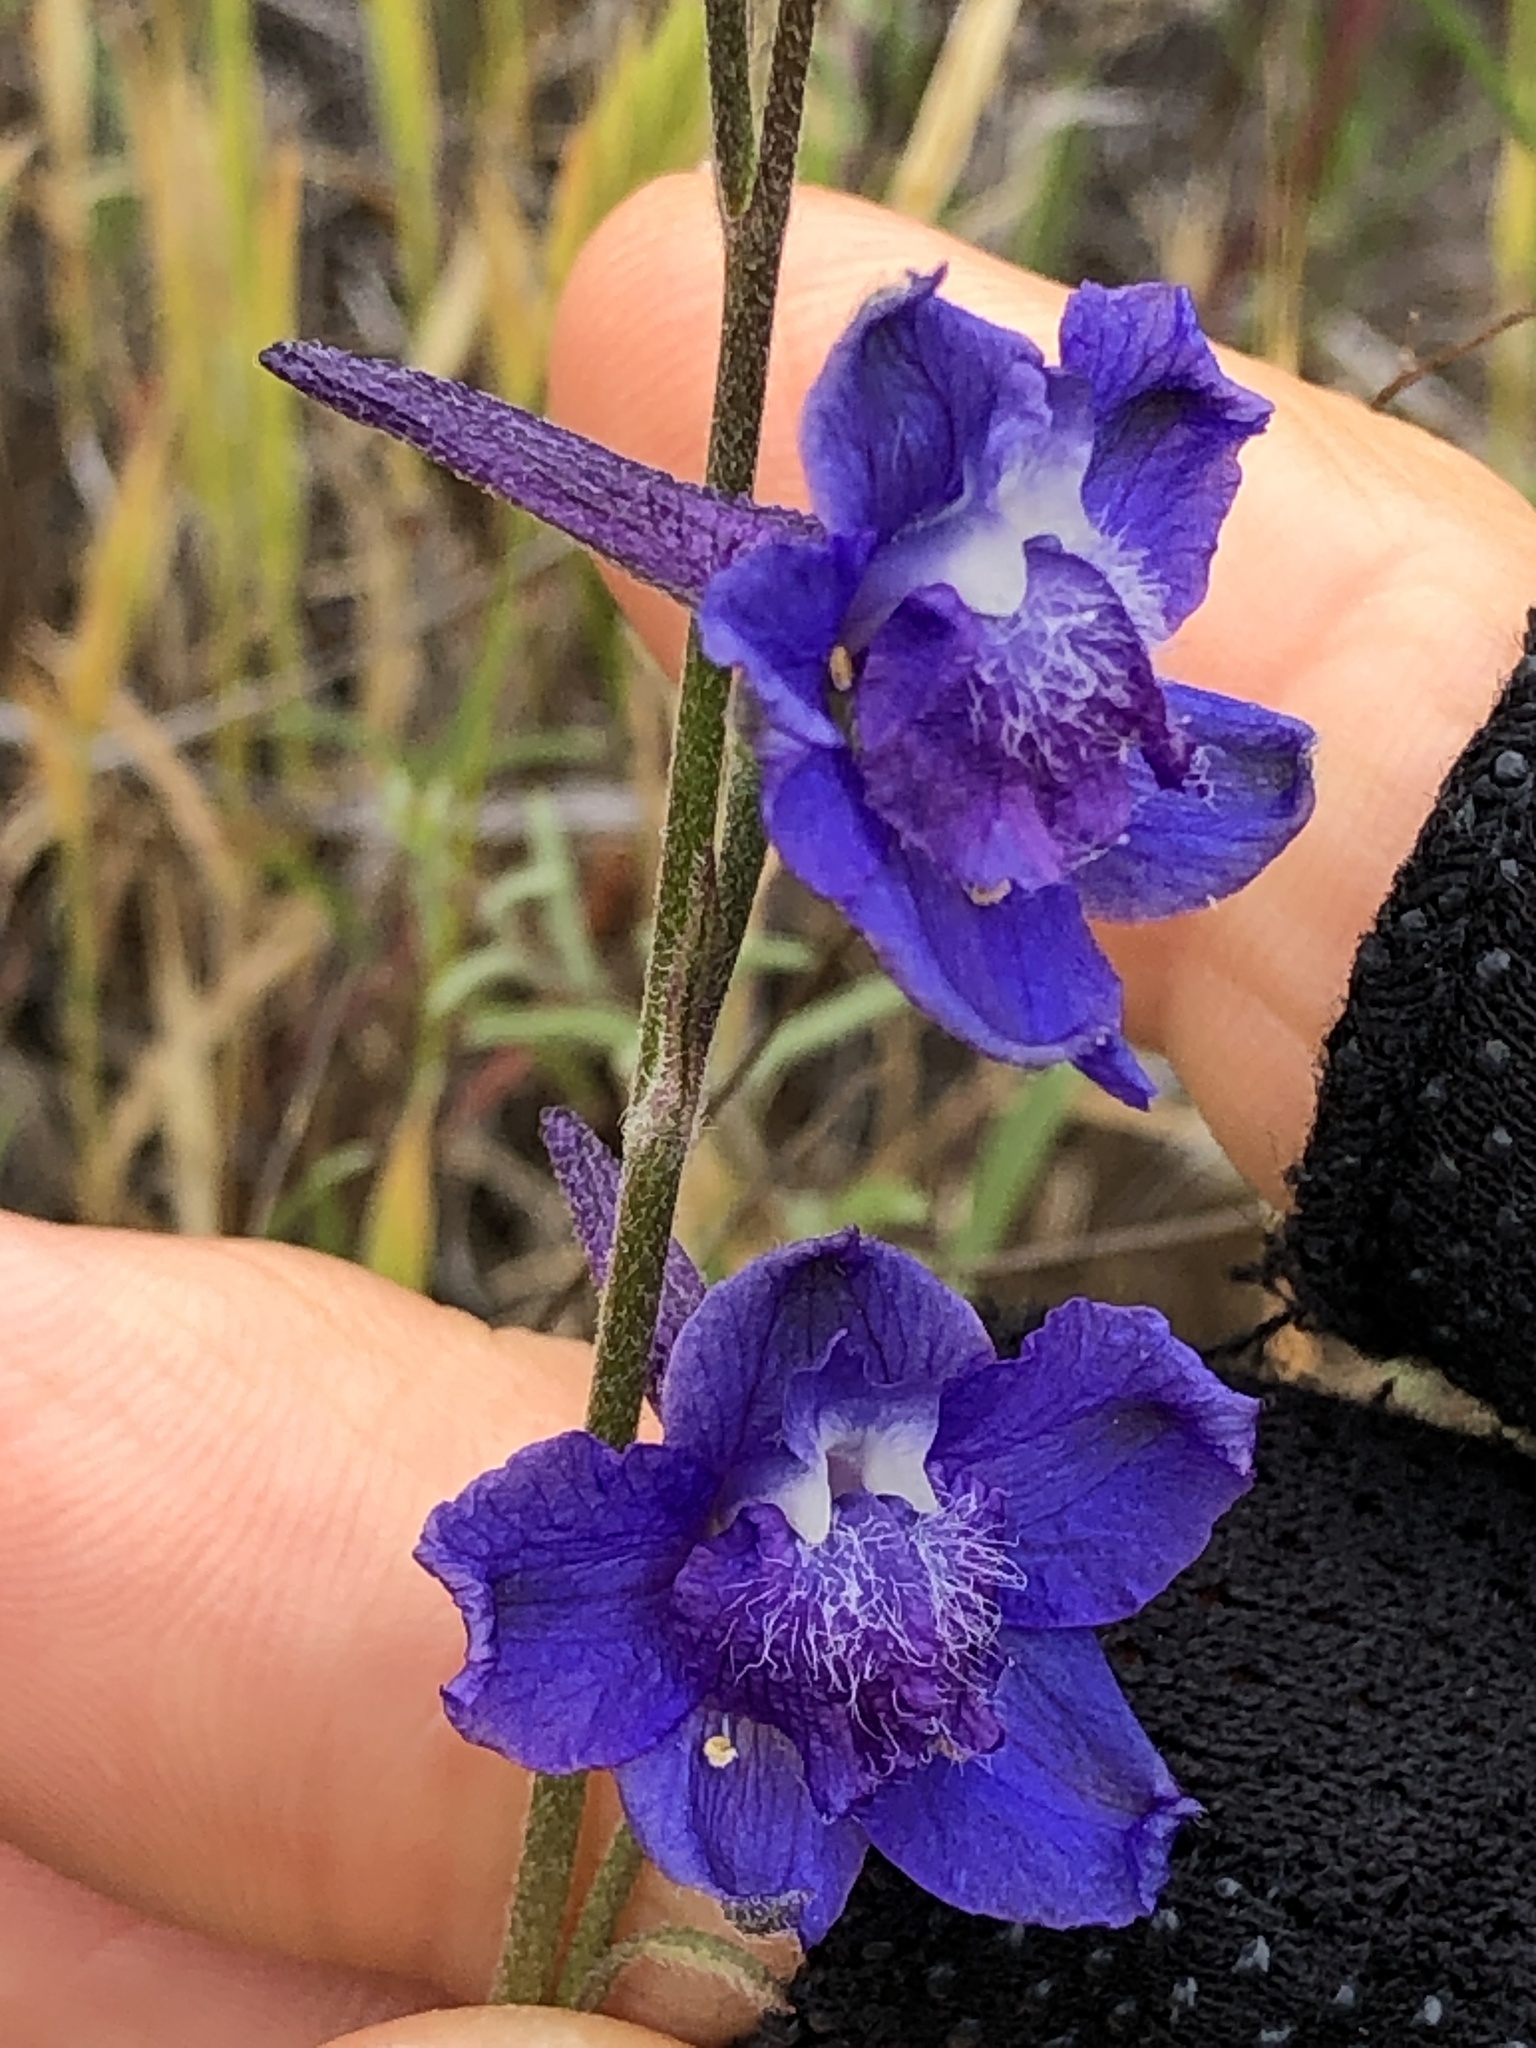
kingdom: Plantae
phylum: Tracheophyta
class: Magnoliopsida
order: Ranunculales
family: Ranunculaceae
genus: Delphinium
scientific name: Delphinium hesperium
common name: Western larkspur
